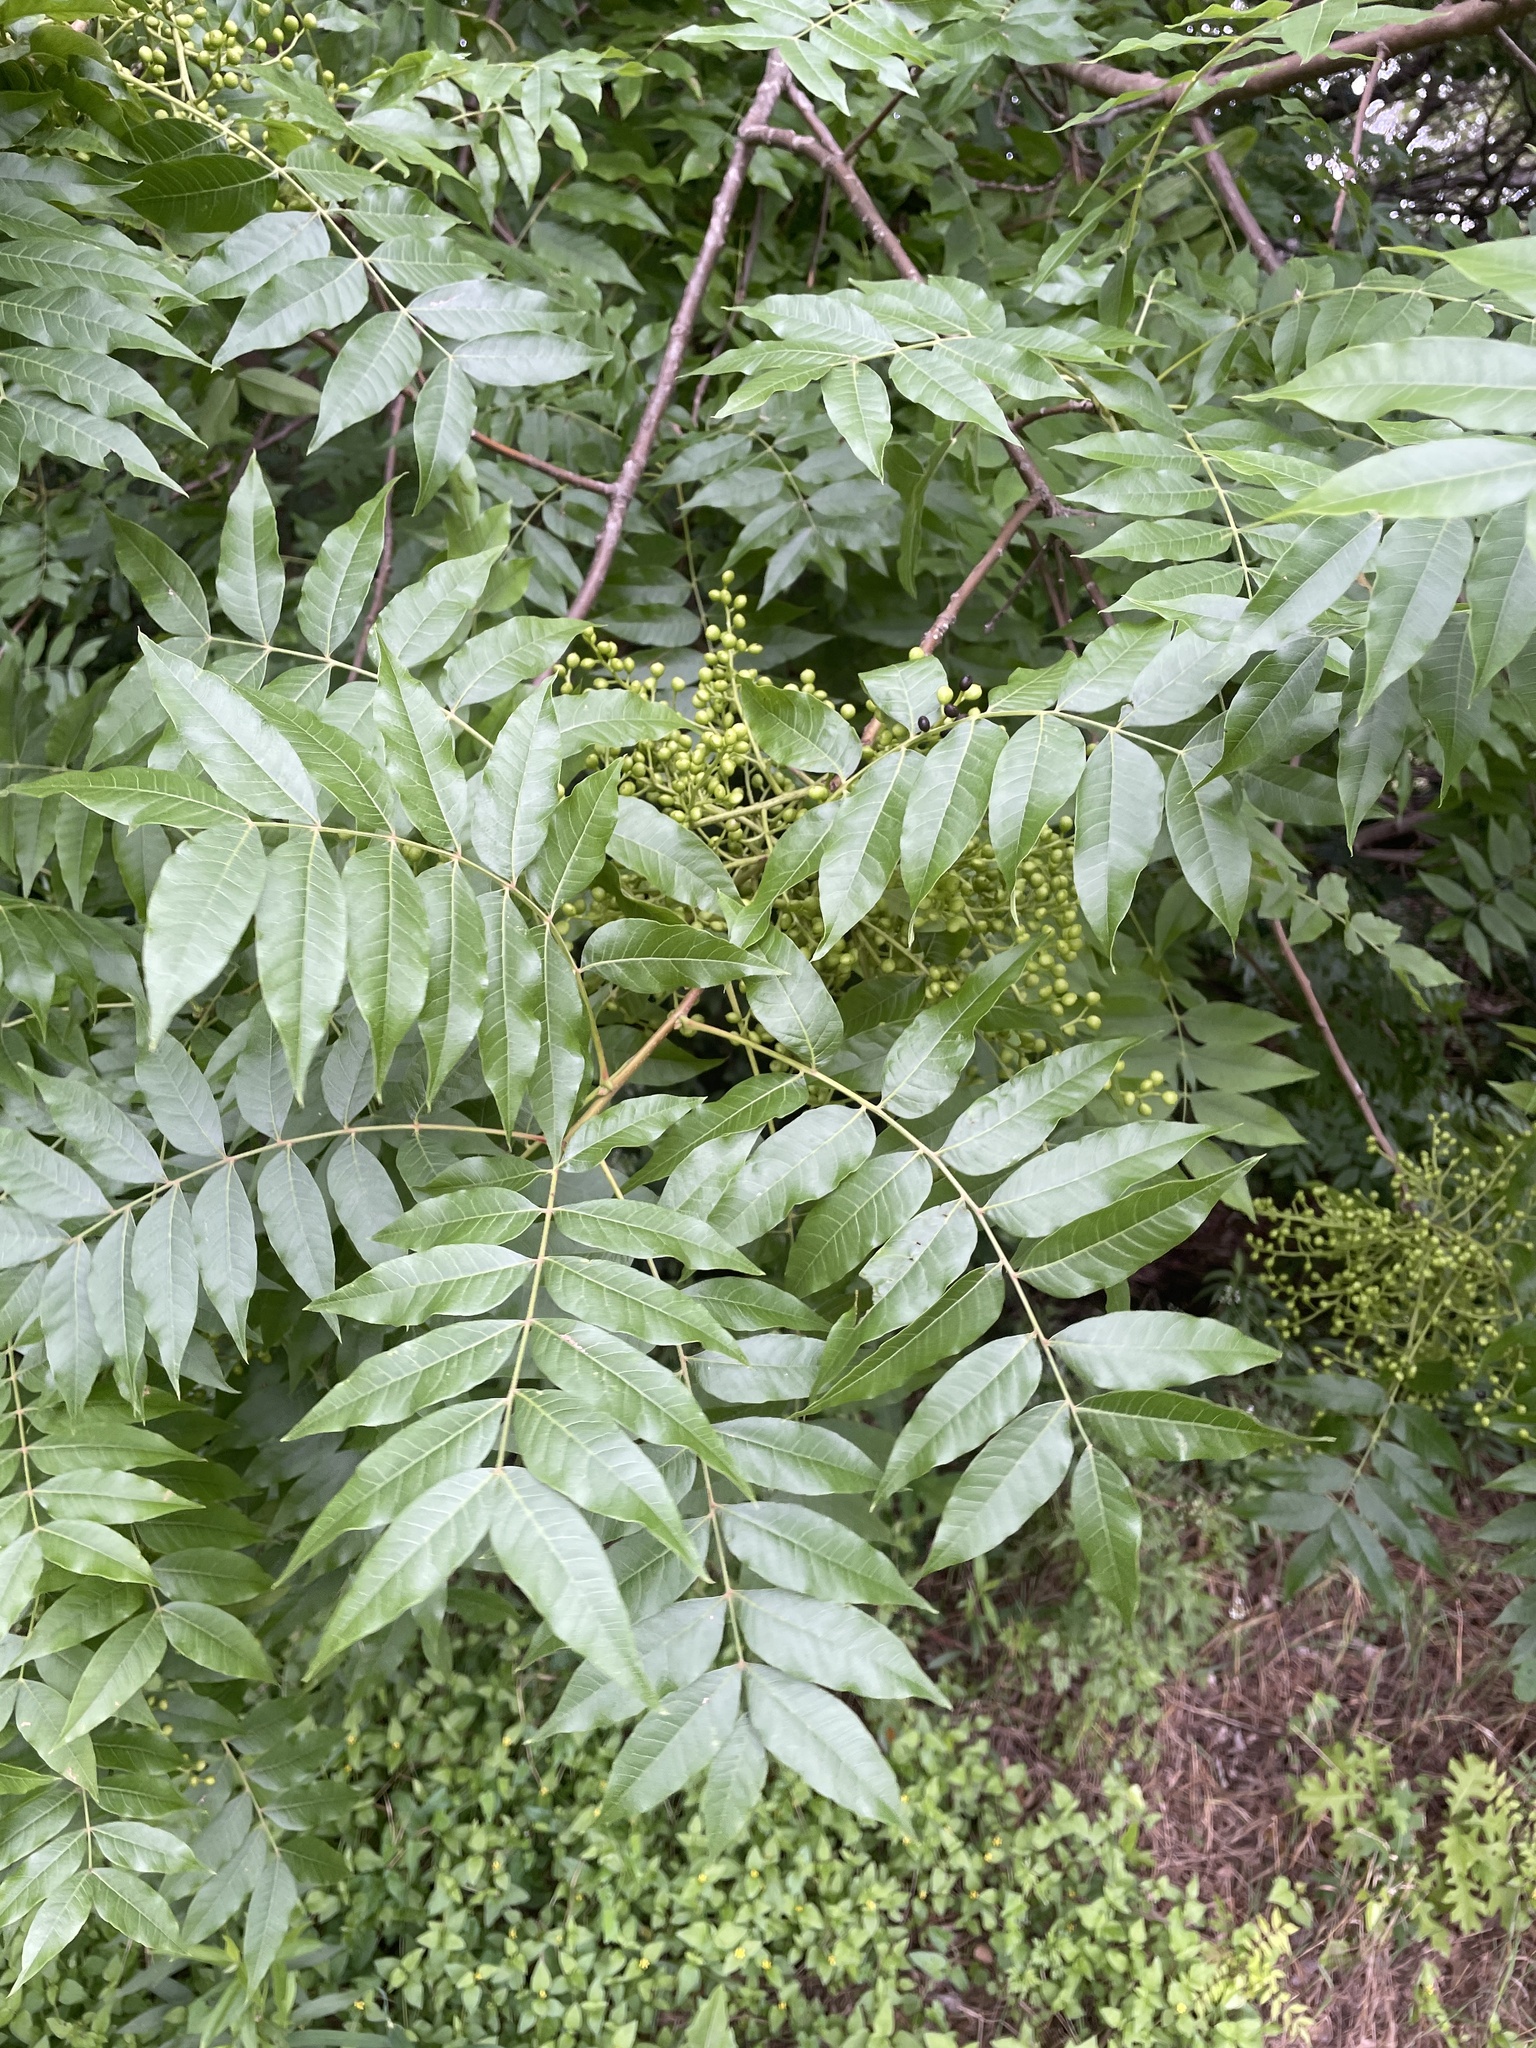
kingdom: Plantae
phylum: Tracheophyta
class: Magnoliopsida
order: Sapindales
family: Anacardiaceae
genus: Pistacia
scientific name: Pistacia chinensis
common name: Chinese pistache
